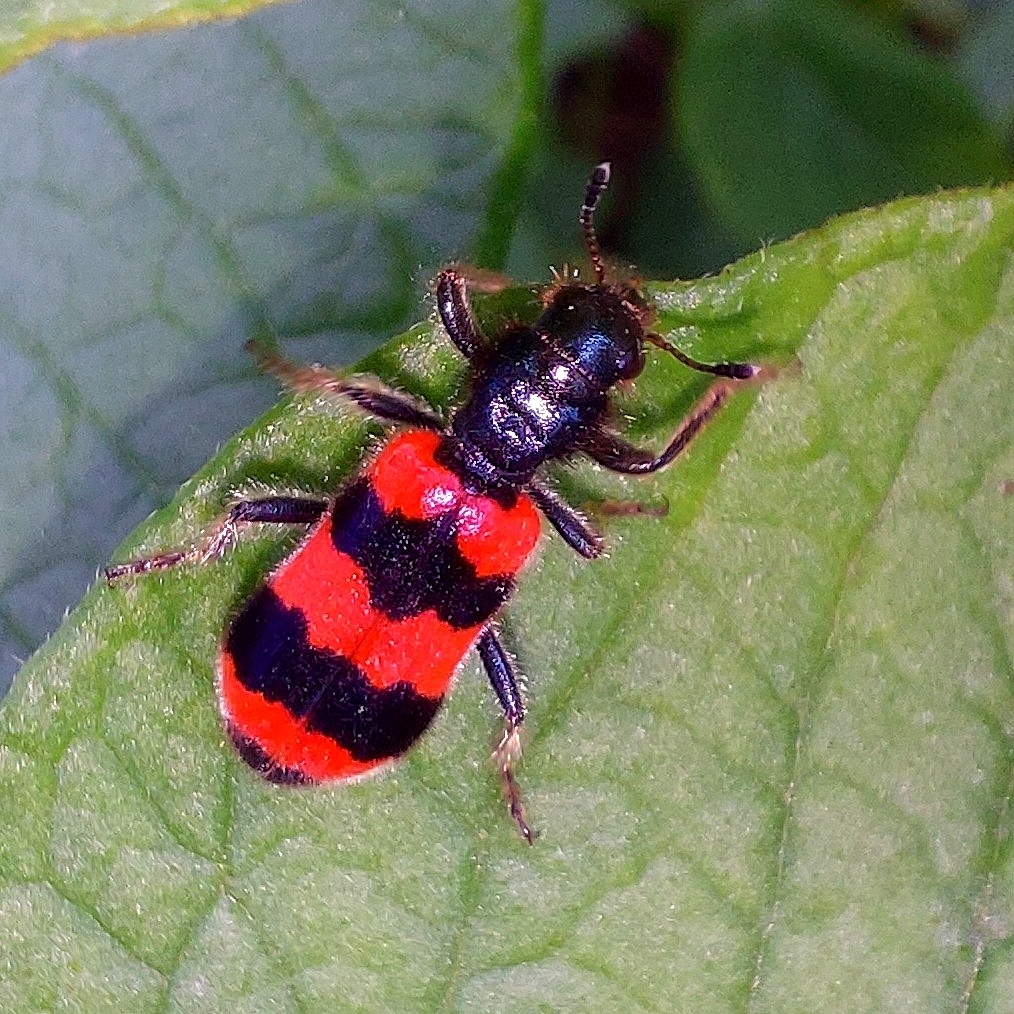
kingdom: Animalia
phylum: Arthropoda
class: Insecta
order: Coleoptera
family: Cleridae
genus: Trichodes
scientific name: Trichodes apiarius
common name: Bee-eating beetle
